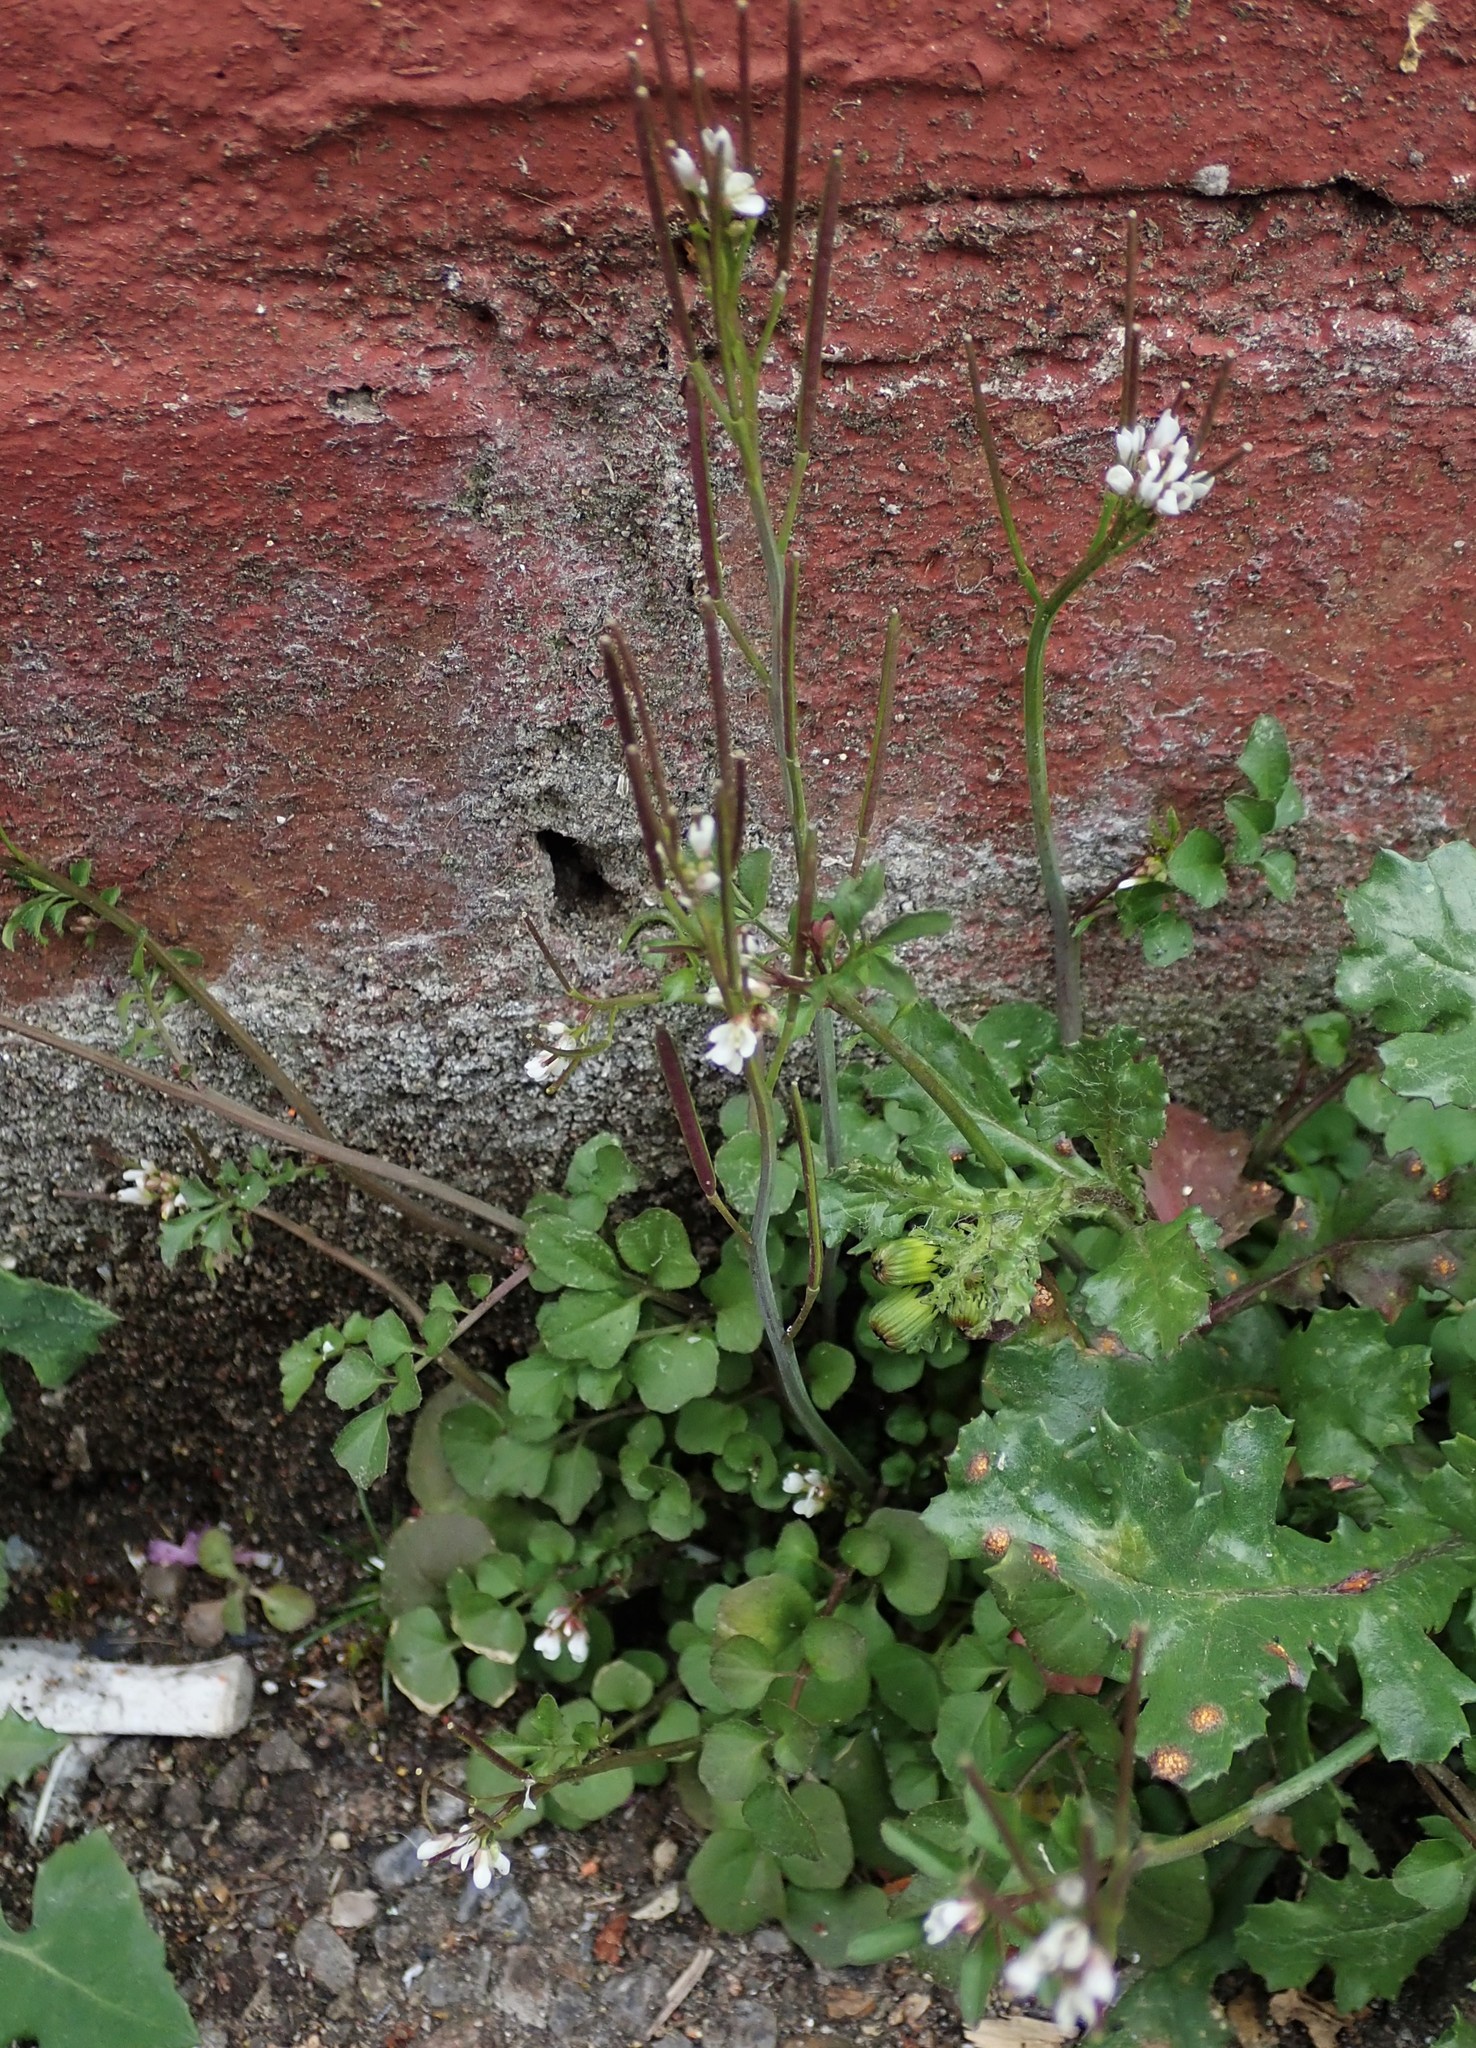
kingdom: Plantae
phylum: Tracheophyta
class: Magnoliopsida
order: Brassicales
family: Brassicaceae
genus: Cardamine
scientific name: Cardamine hirsuta
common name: Hairy bittercress
